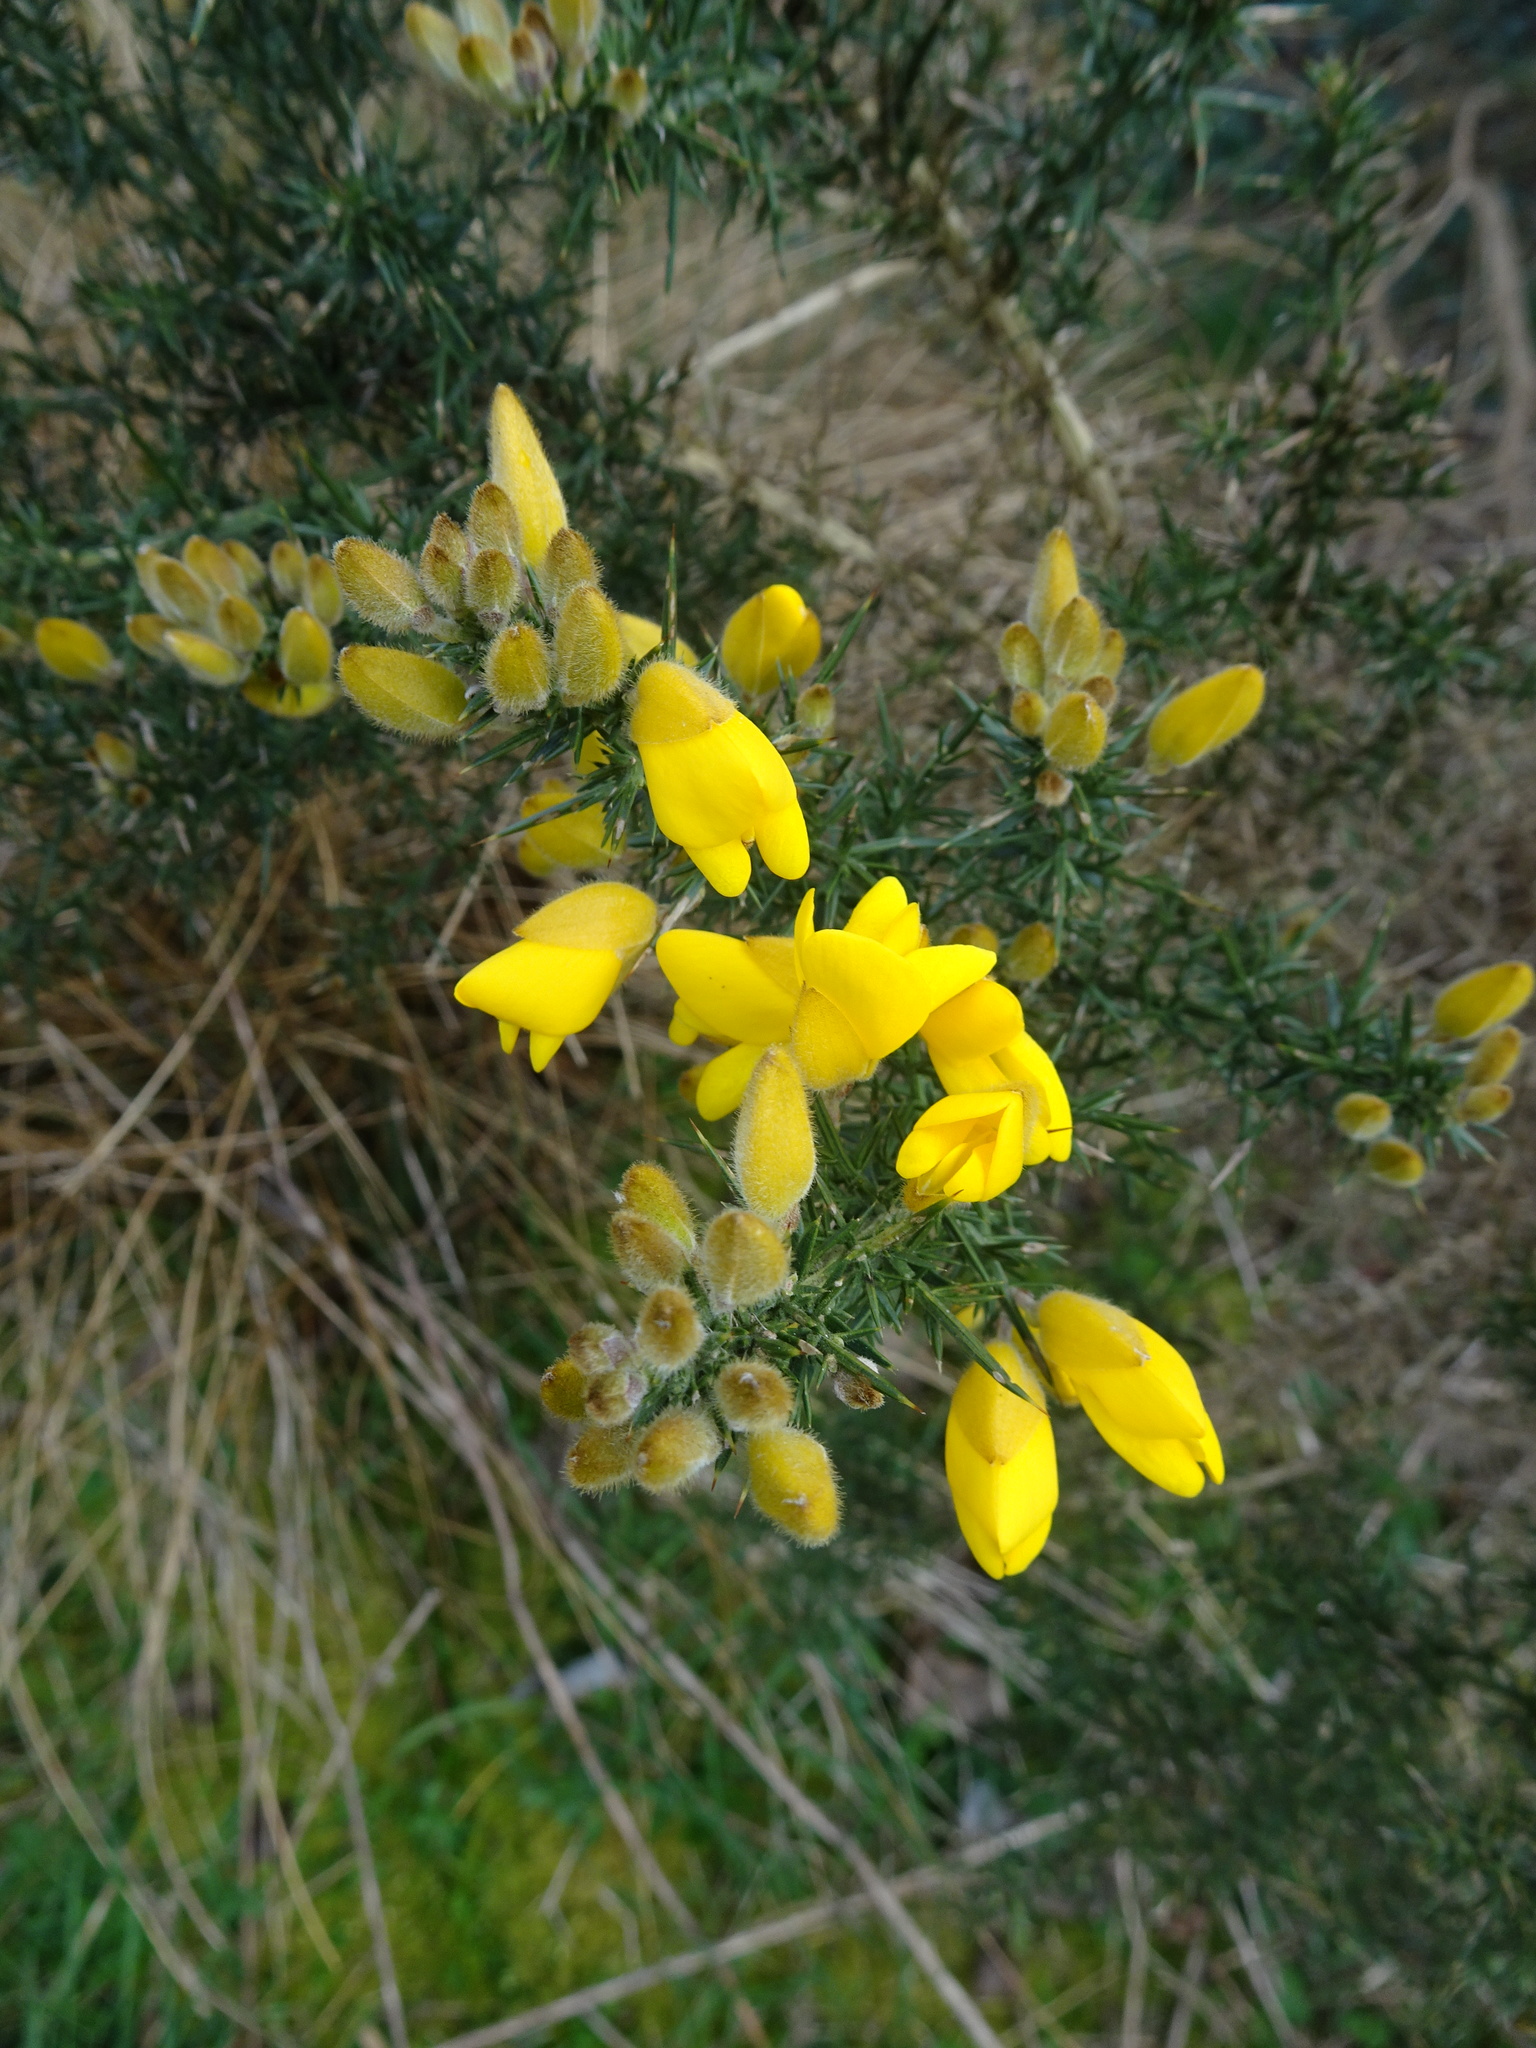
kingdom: Plantae
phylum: Tracheophyta
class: Magnoliopsida
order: Fabales
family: Fabaceae
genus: Ulex
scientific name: Ulex europaeus
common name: Common gorse
